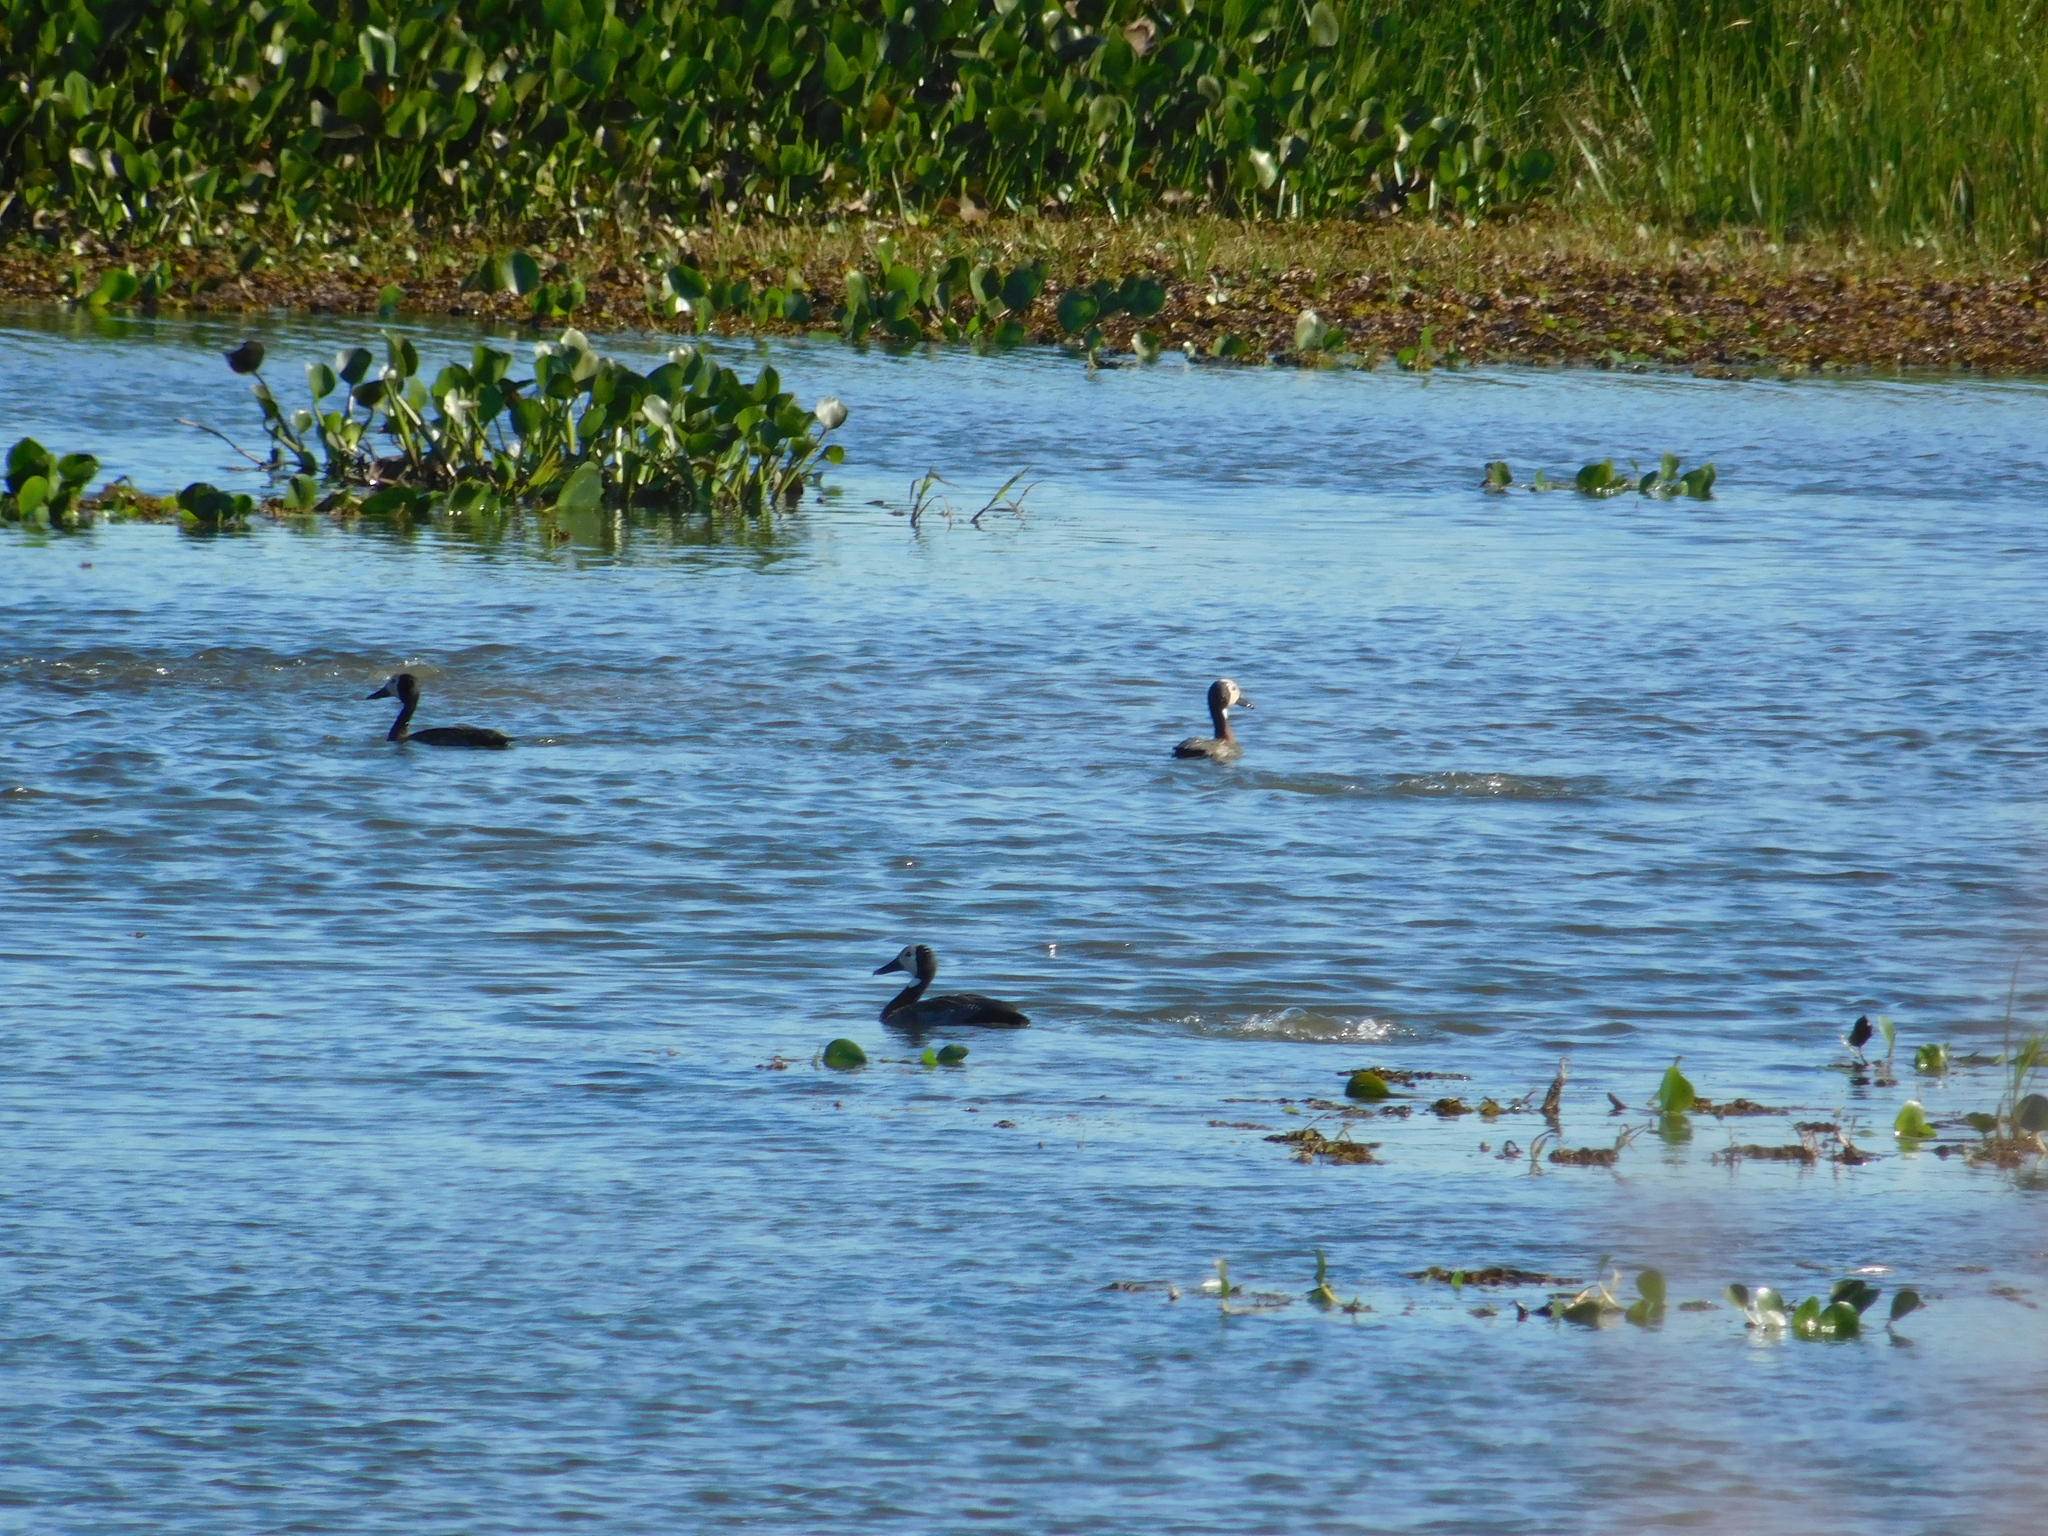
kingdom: Animalia
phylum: Chordata
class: Aves
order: Anseriformes
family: Anatidae
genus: Dendrocygna
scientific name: Dendrocygna viduata
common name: White-faced whistling duck
